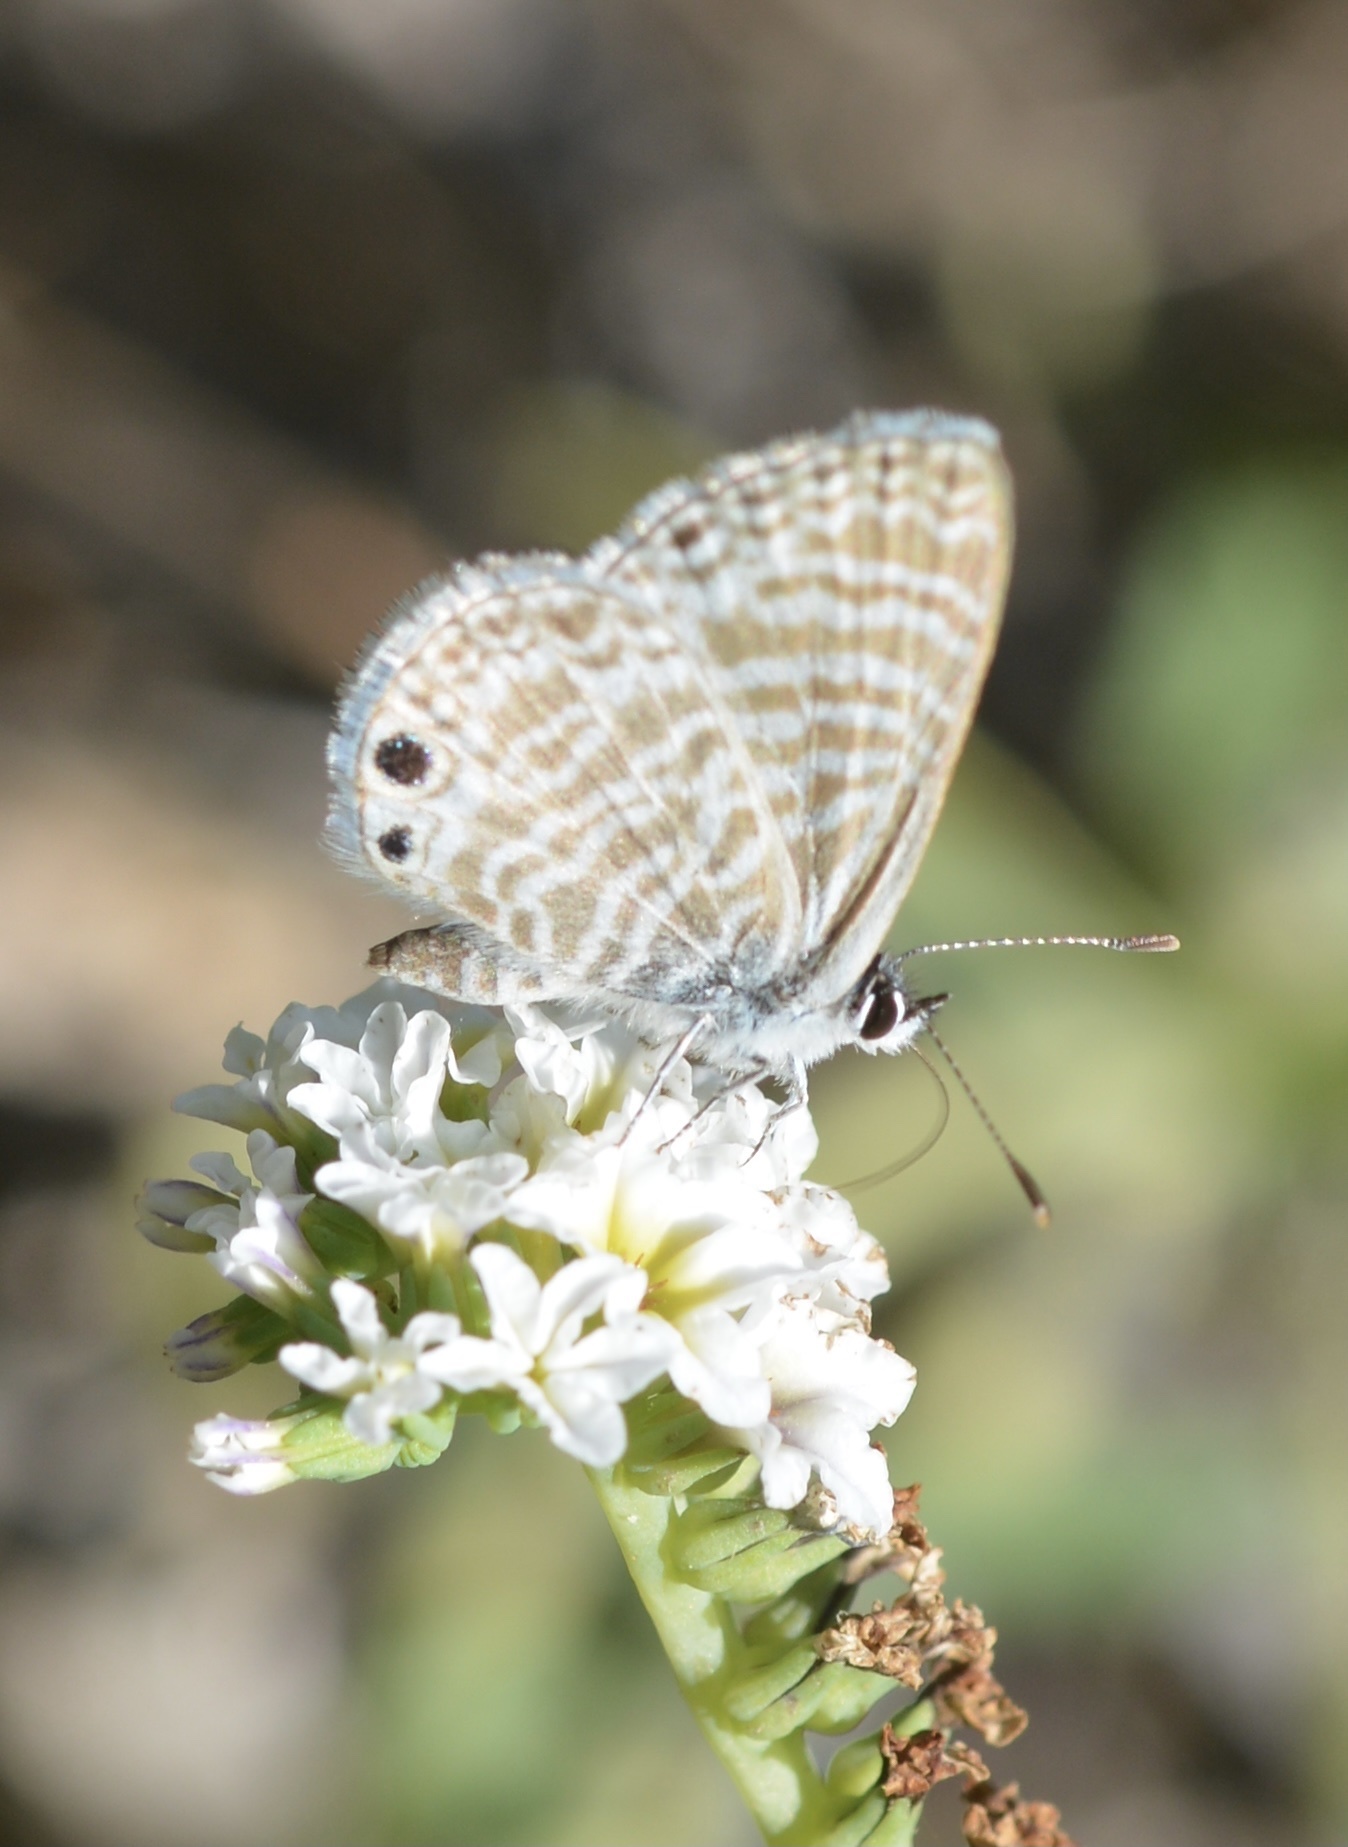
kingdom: Animalia
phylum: Arthropoda
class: Insecta
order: Lepidoptera
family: Lycaenidae
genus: Leptotes
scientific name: Leptotes marina
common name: Marine blue
